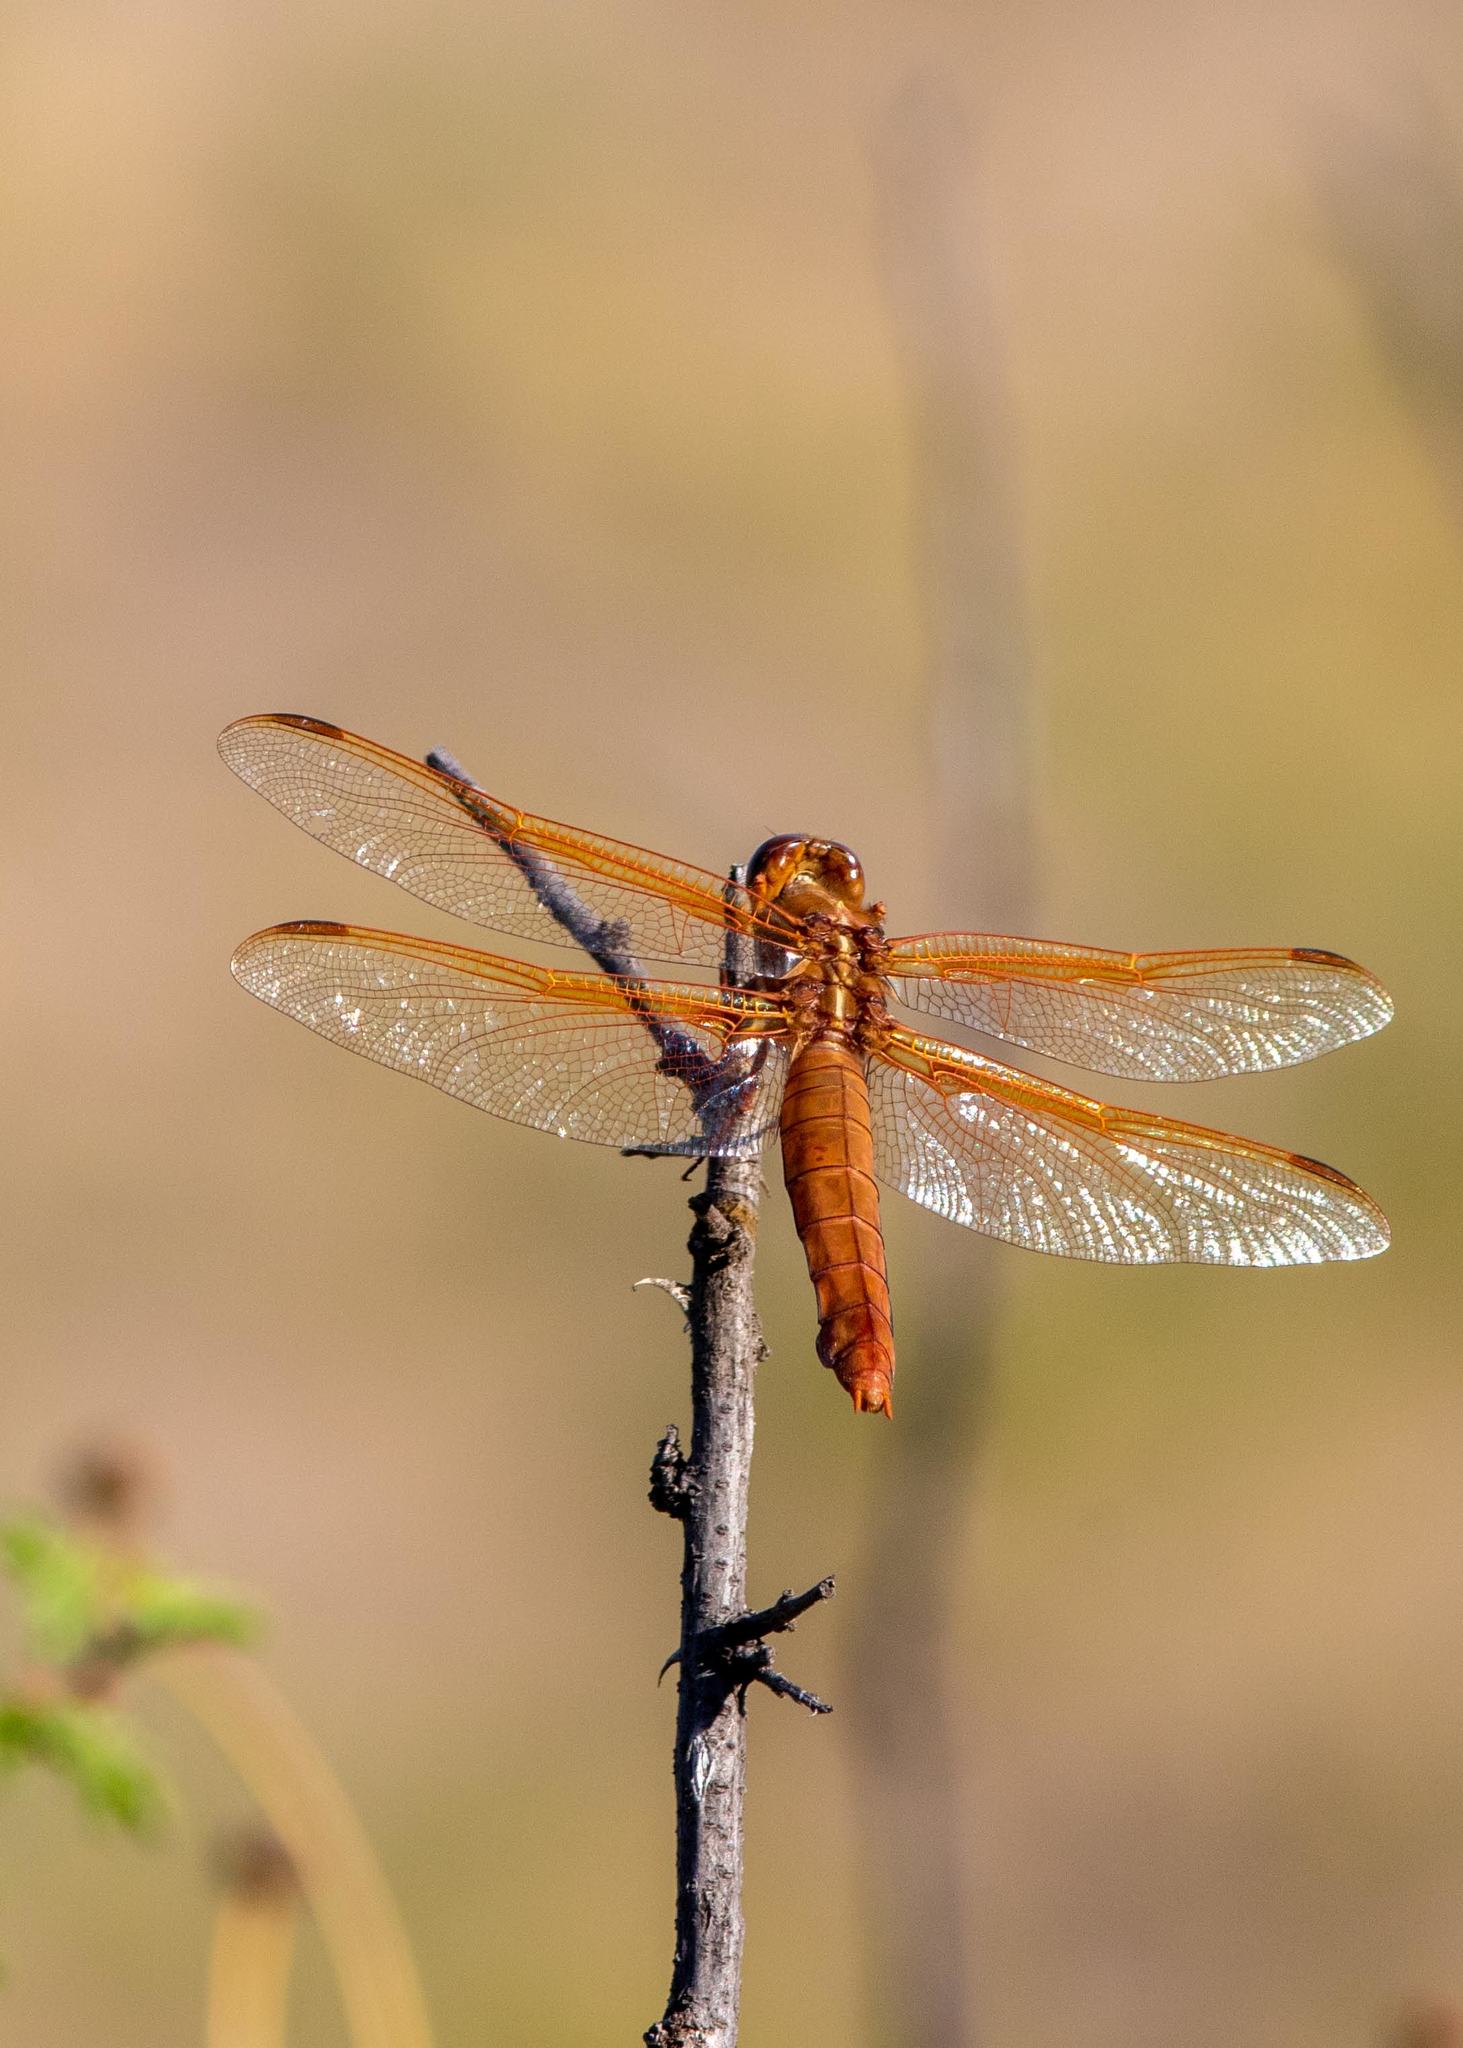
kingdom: Animalia
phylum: Arthropoda
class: Insecta
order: Odonata
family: Libellulidae
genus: Libellula
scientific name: Libellula croceipennis
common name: Neon skimmer
